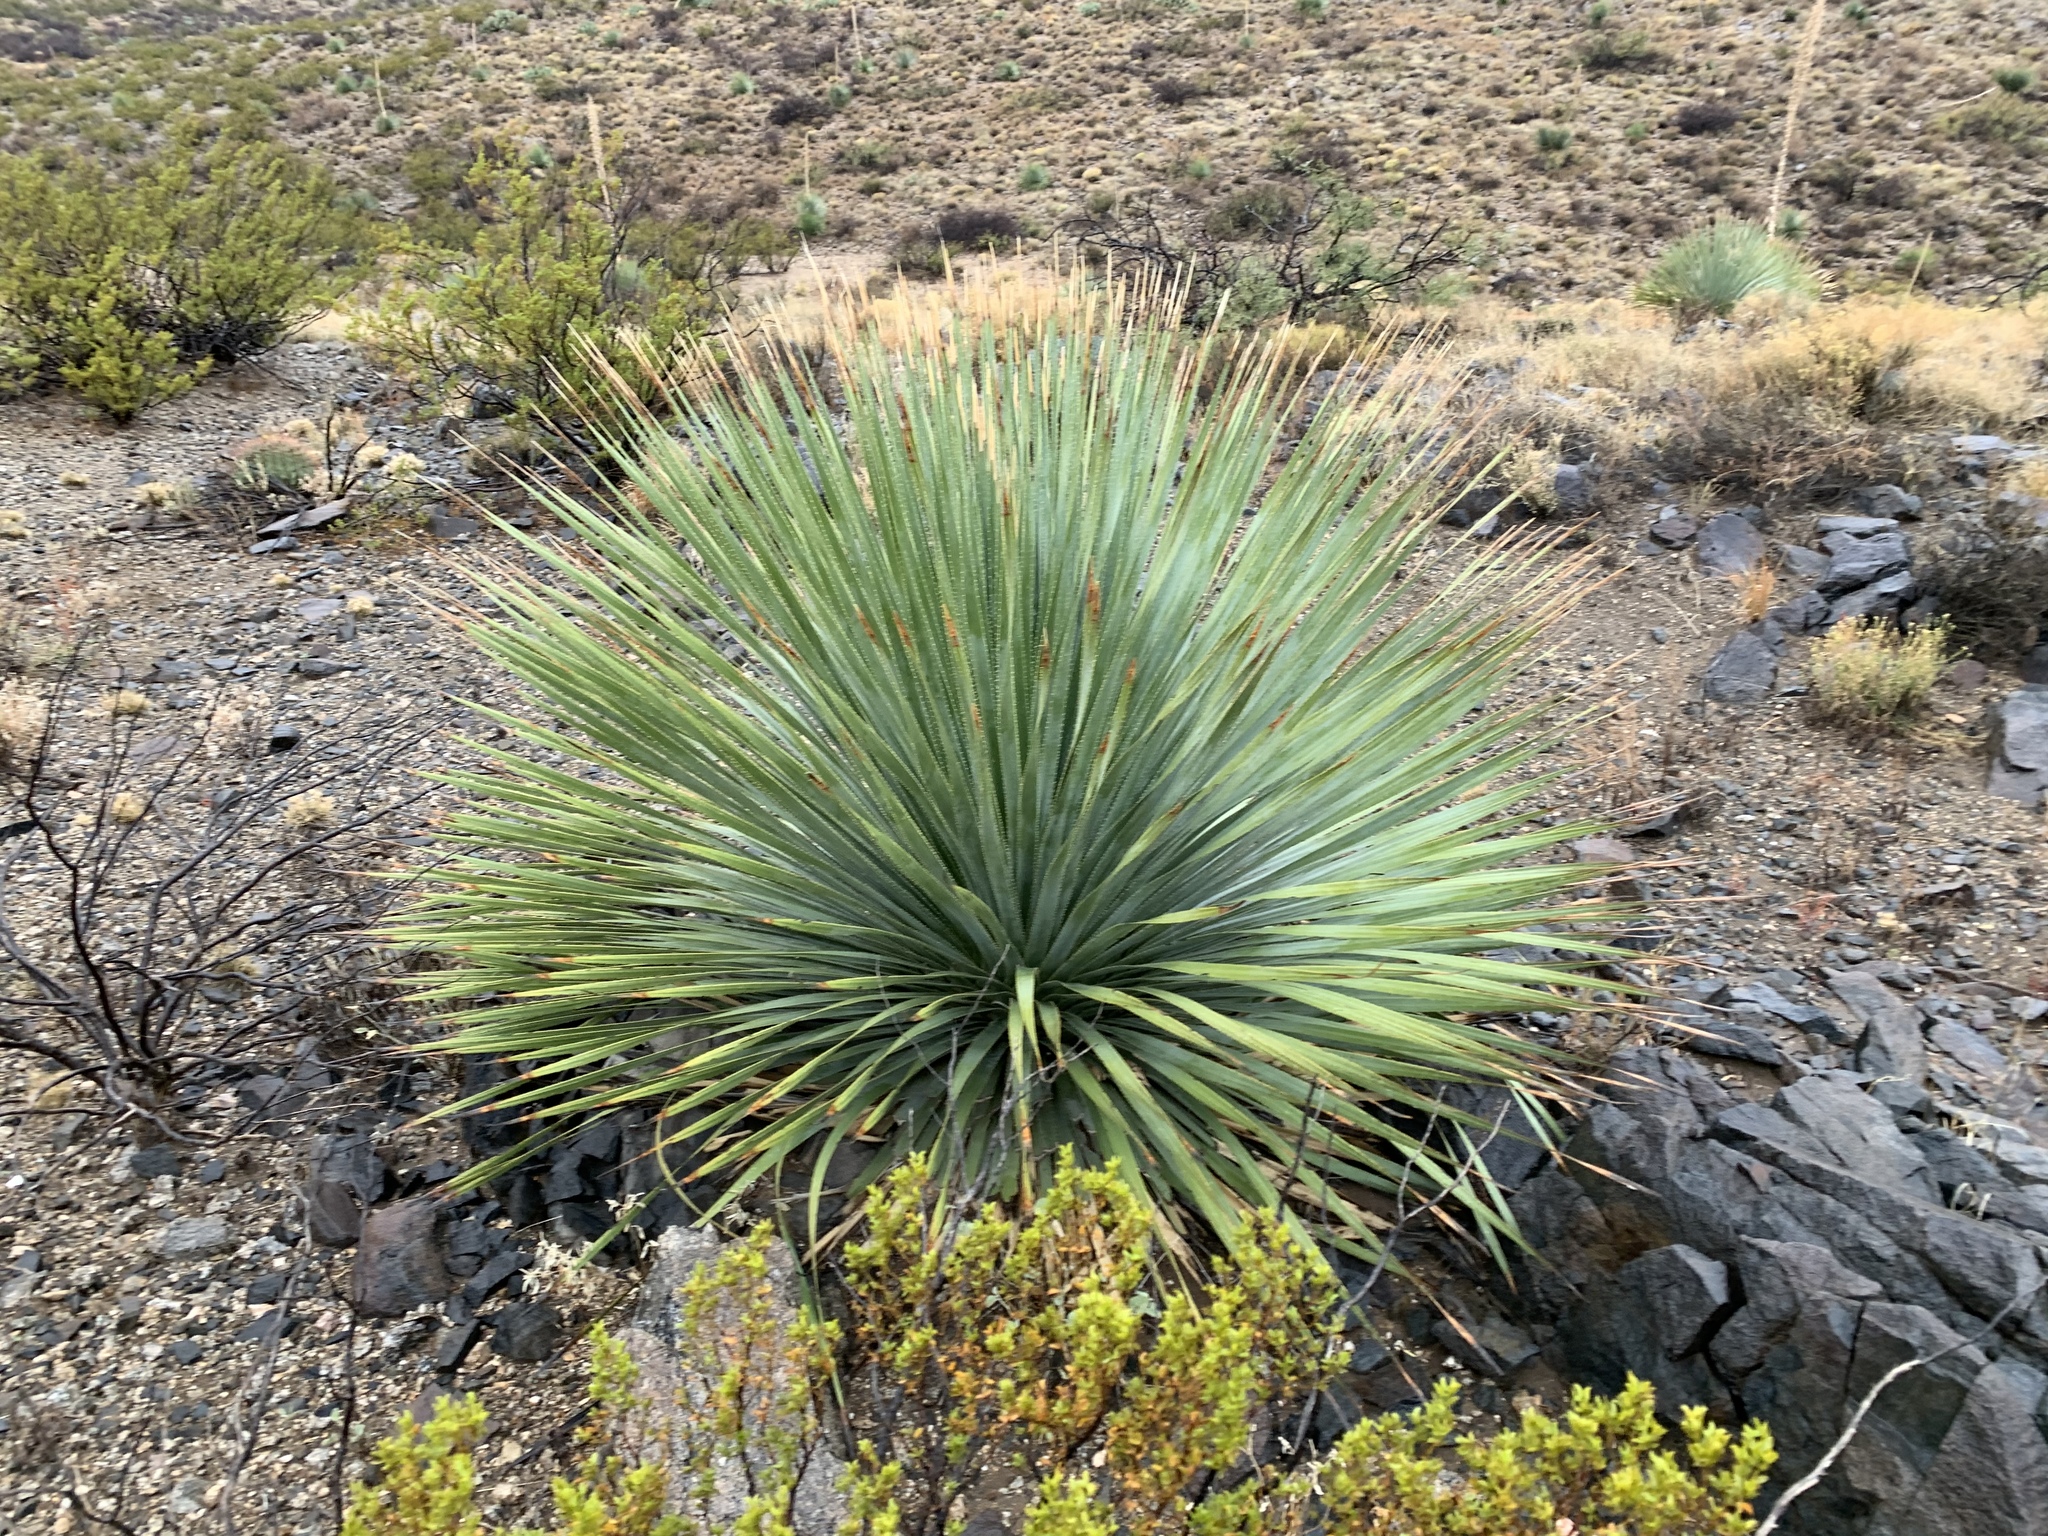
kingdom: Plantae
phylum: Tracheophyta
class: Liliopsida
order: Asparagales
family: Asparagaceae
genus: Dasylirion
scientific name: Dasylirion wheeleri
